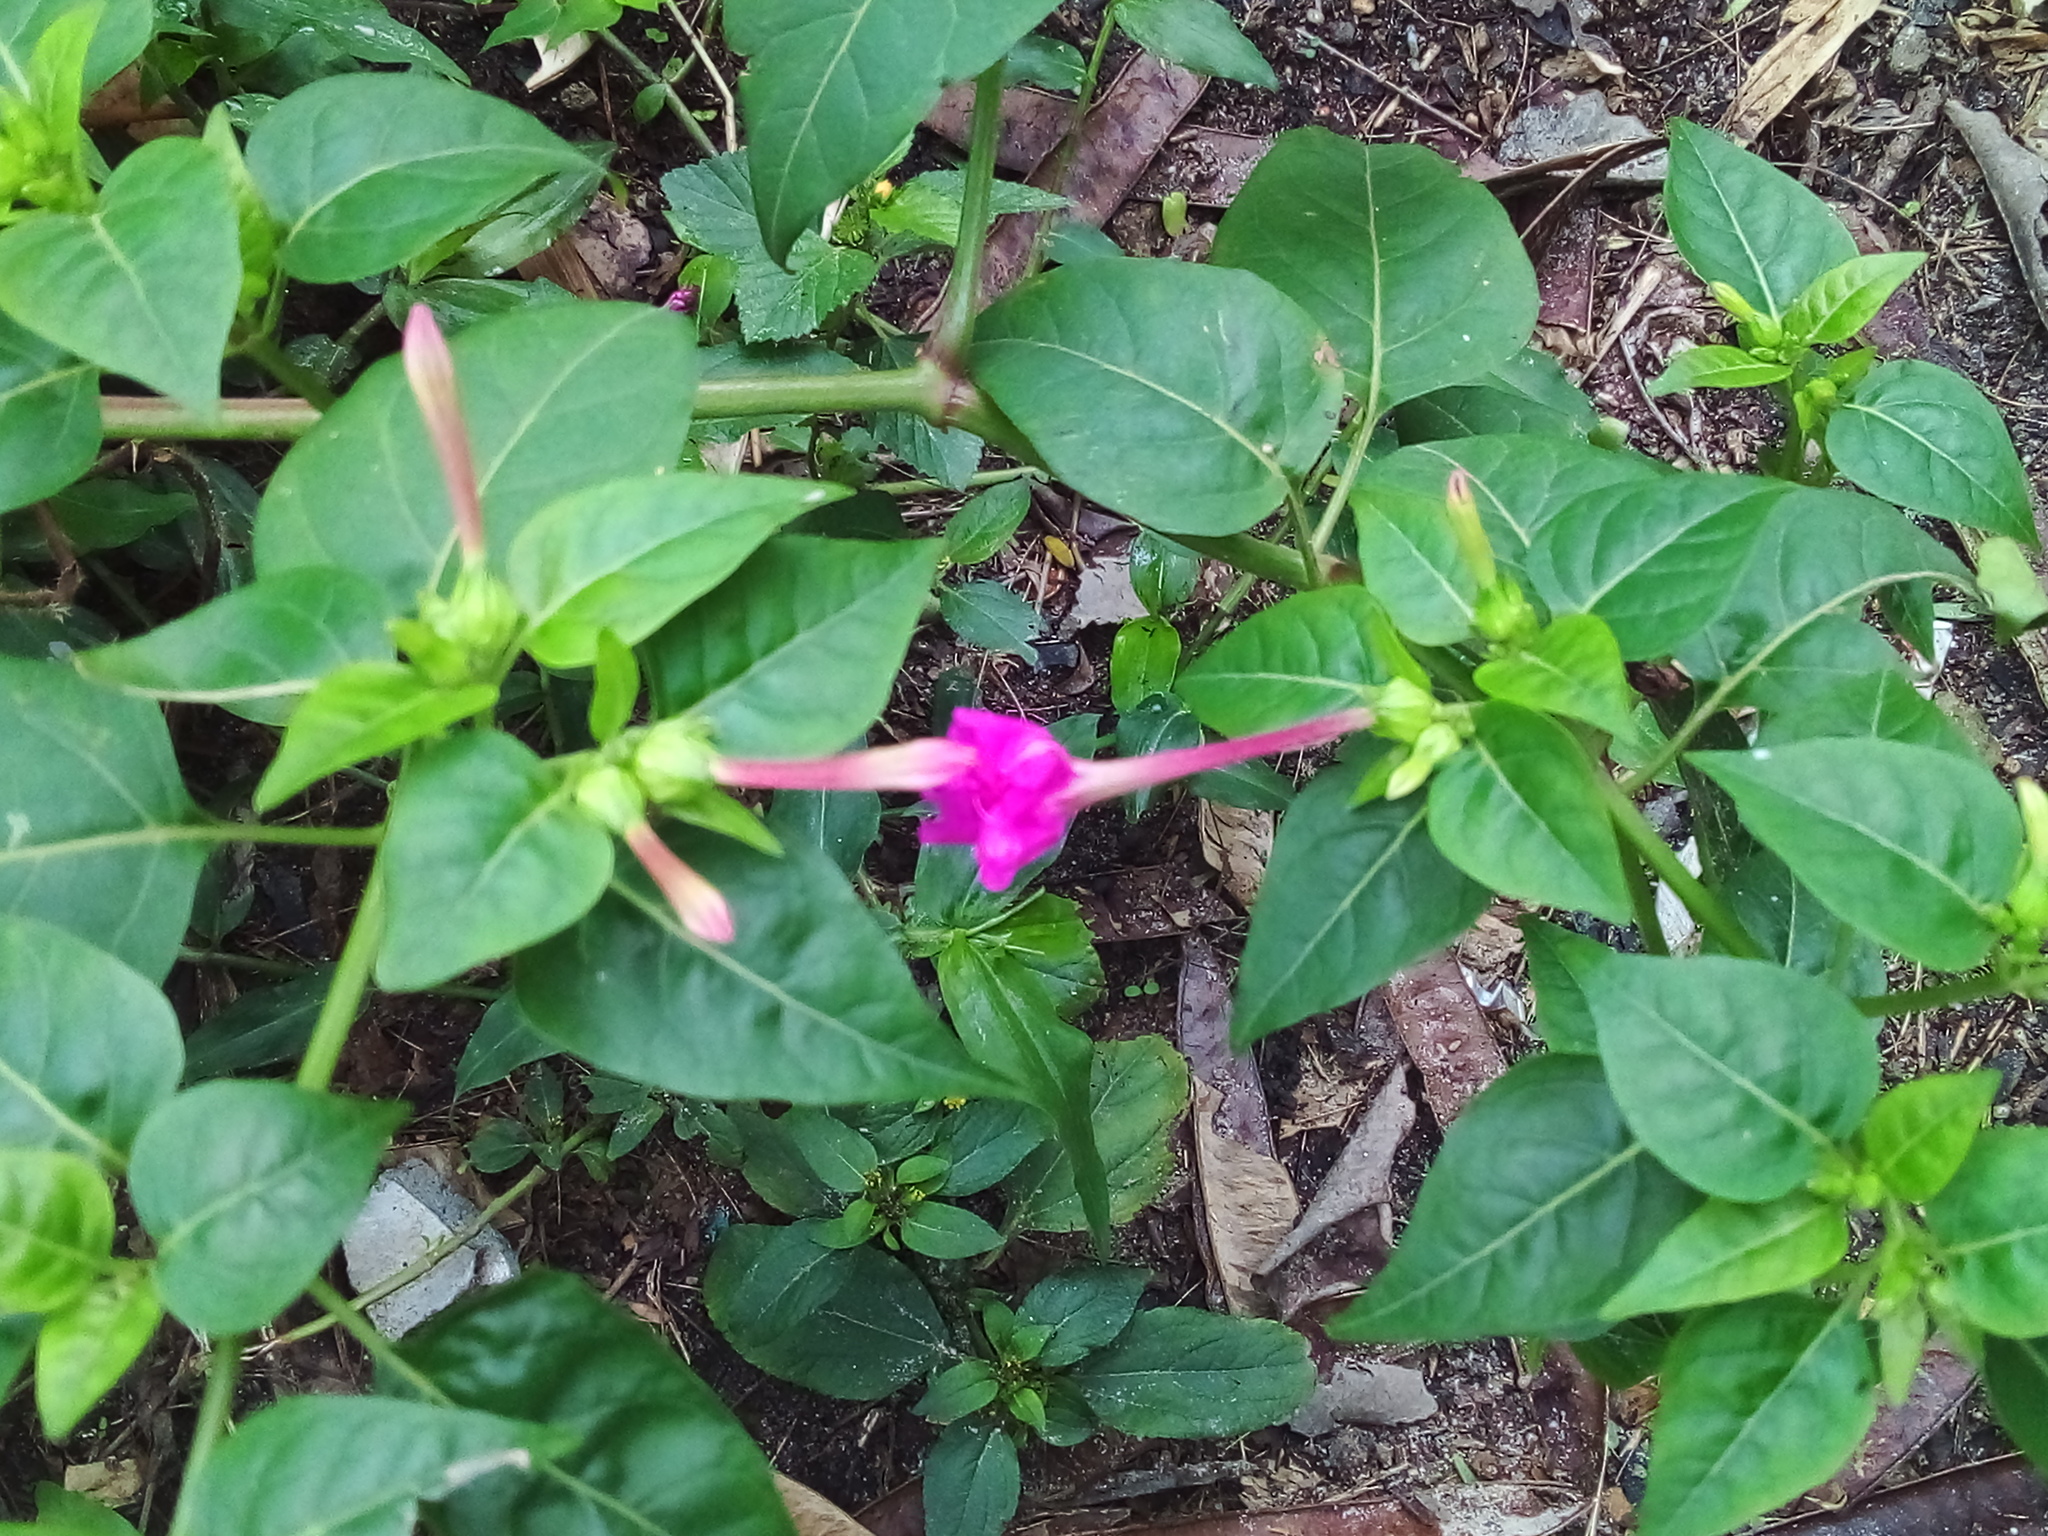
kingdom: Plantae
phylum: Tracheophyta
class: Magnoliopsida
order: Caryophyllales
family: Nyctaginaceae
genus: Mirabilis
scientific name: Mirabilis jalapa
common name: Marvel-of-peru
